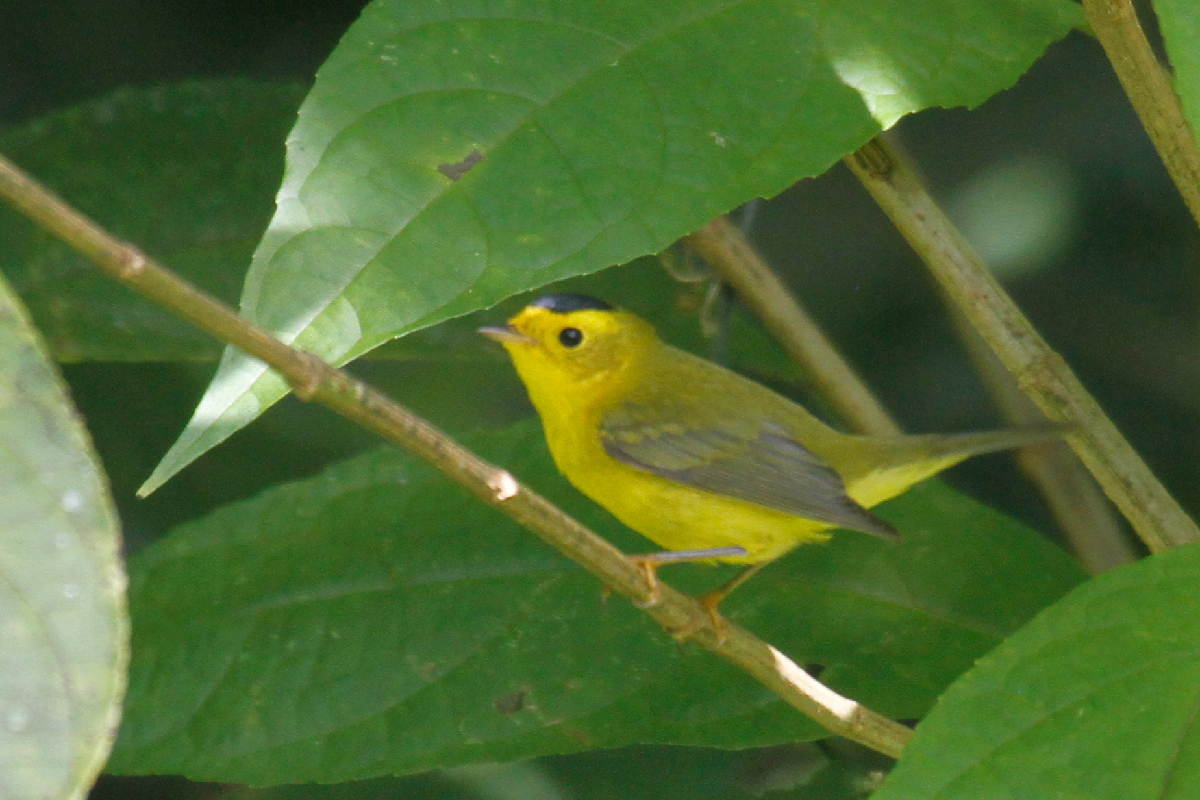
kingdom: Animalia
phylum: Chordata
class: Aves
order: Passeriformes
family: Parulidae
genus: Cardellina
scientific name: Cardellina pusilla
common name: Wilson's warbler
